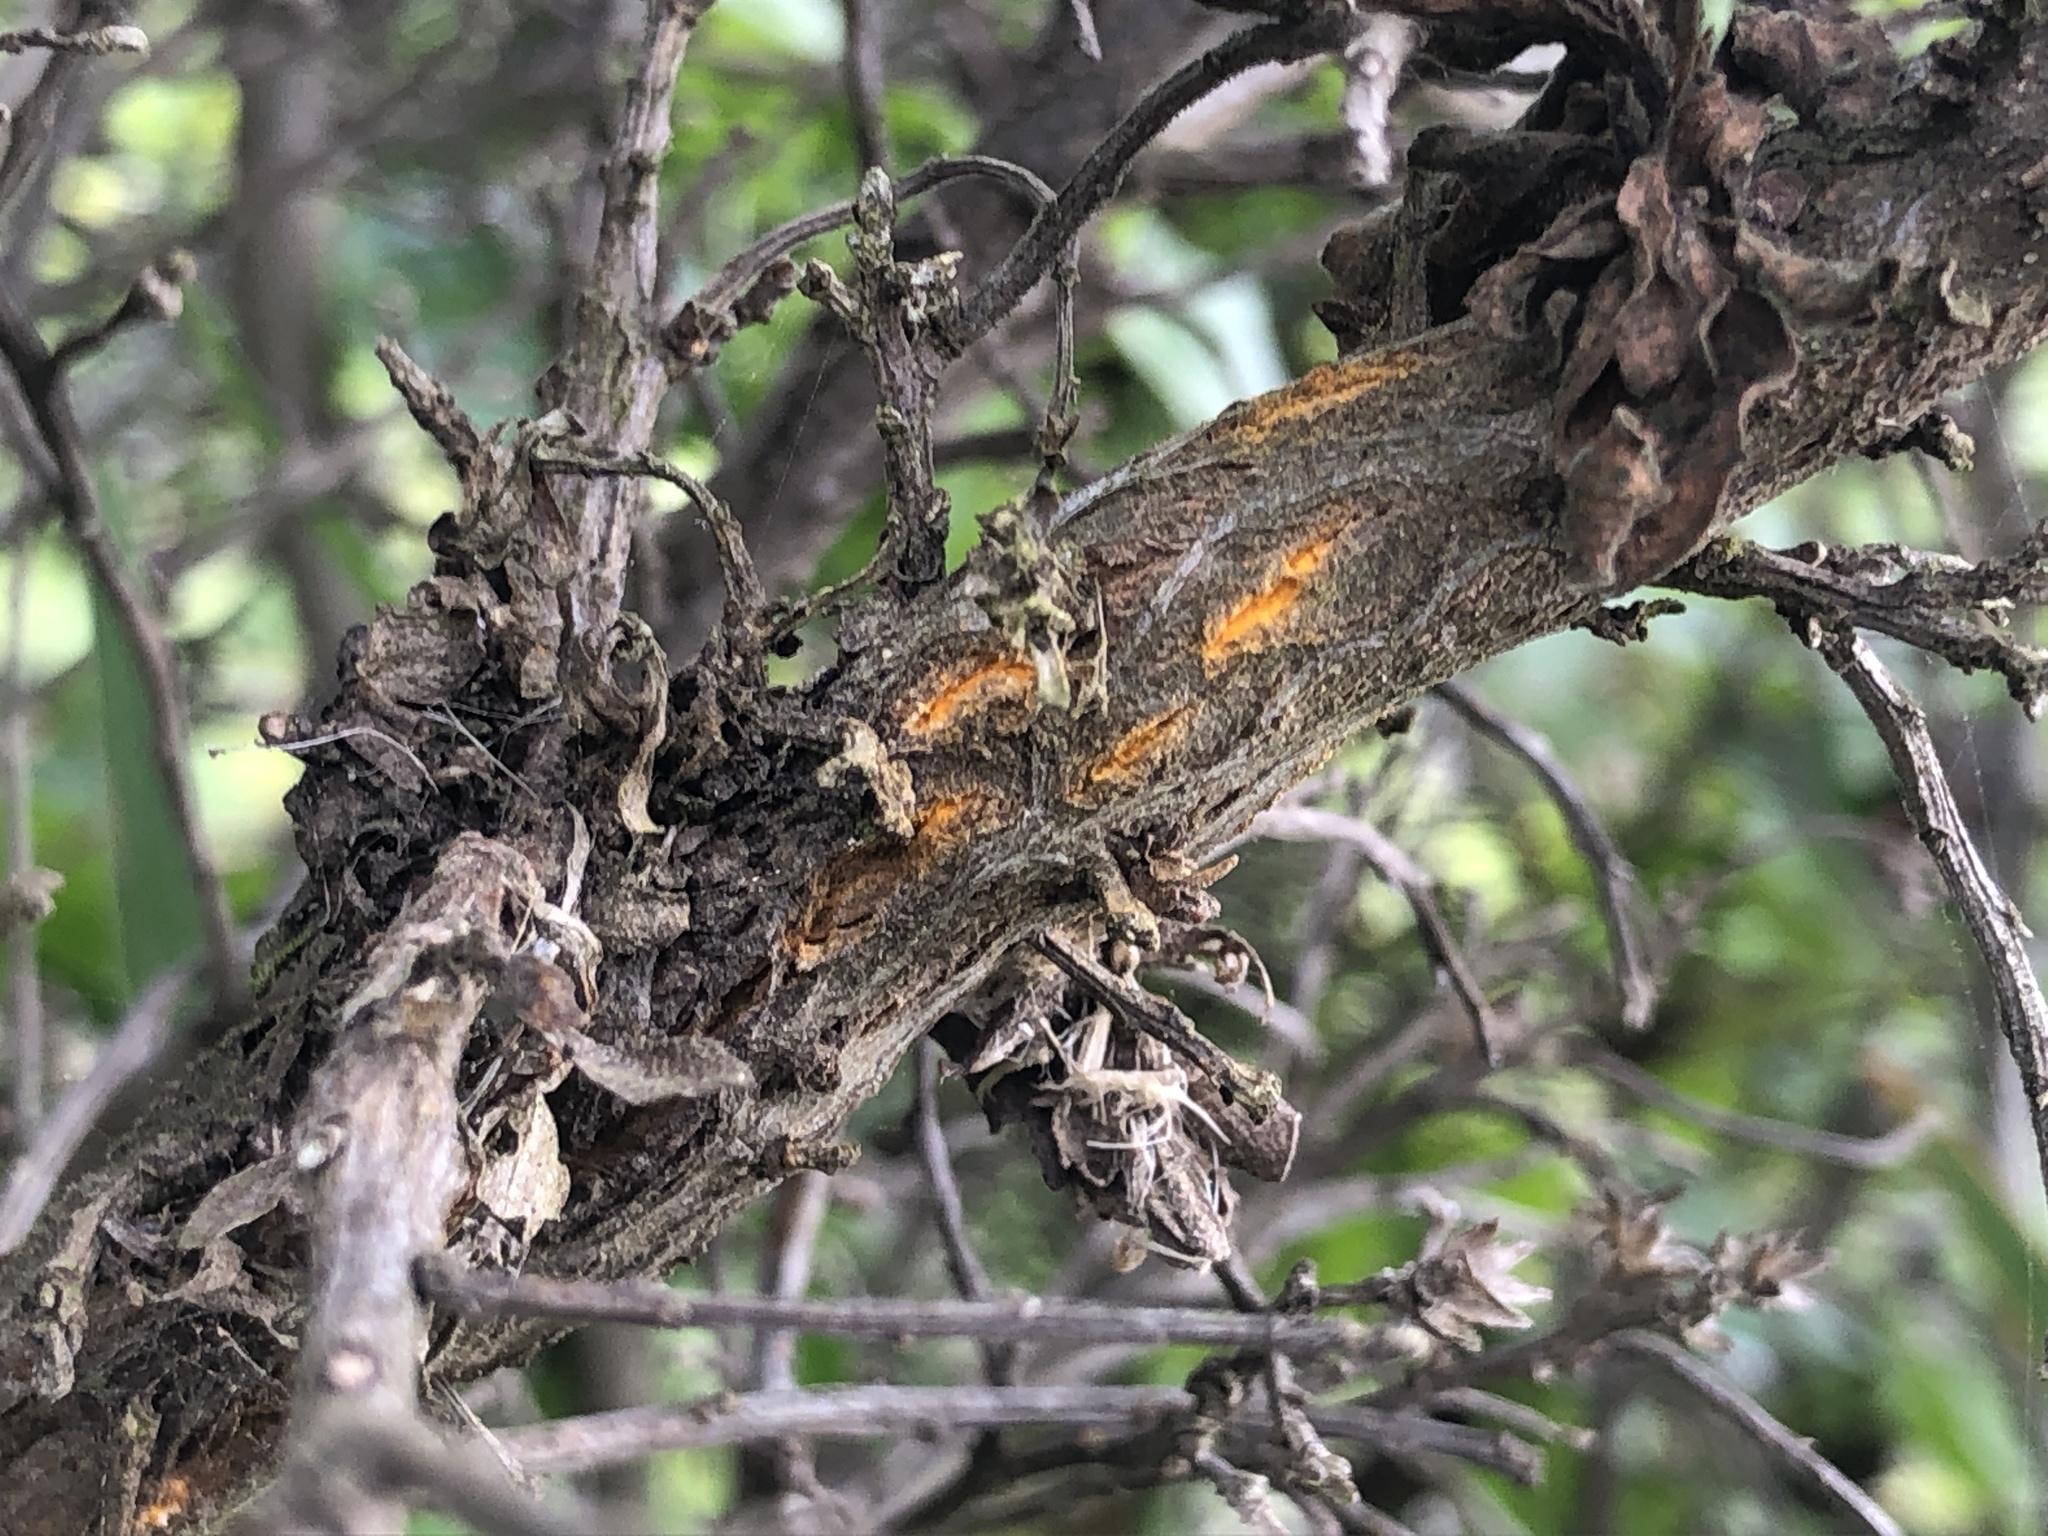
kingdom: Fungi
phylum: Basidiomycota
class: Pucciniomycetes
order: Pucciniales
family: Pucciniaceae
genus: Eriosporangium
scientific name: Eriosporangium evadens
